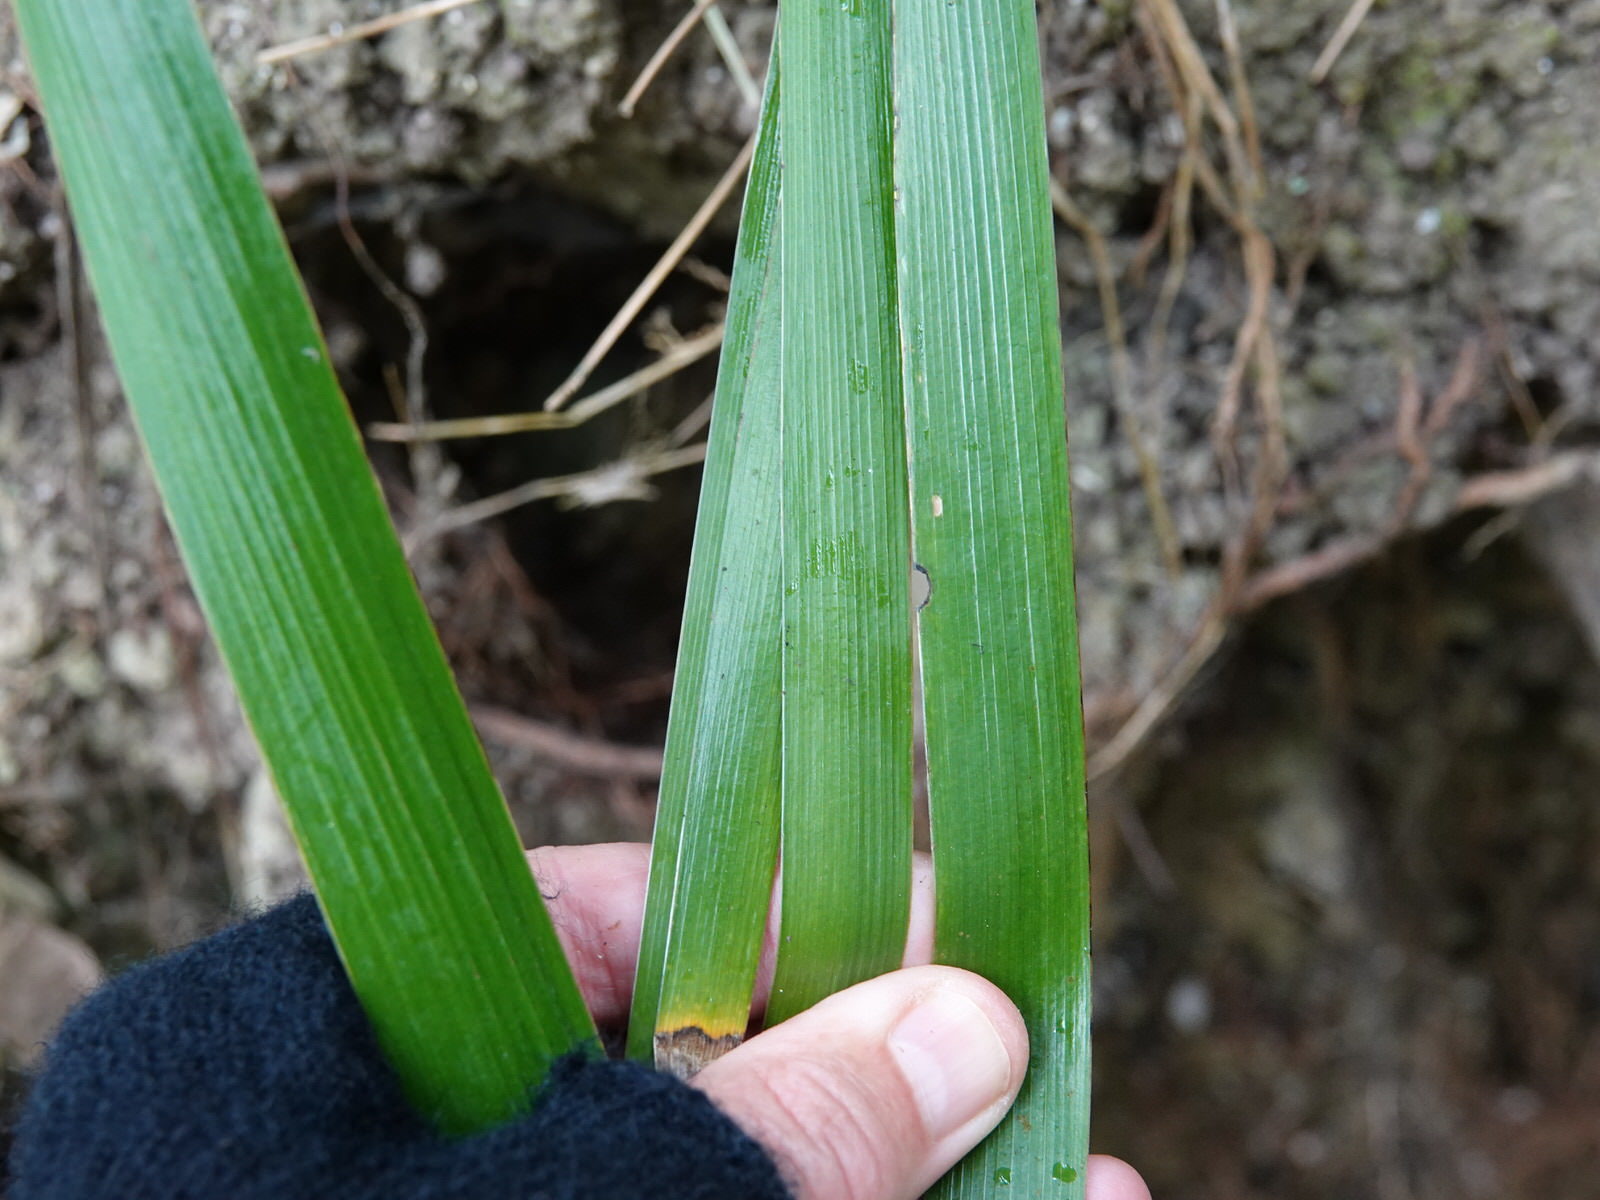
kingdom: Plantae
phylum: Tracheophyta
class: Liliopsida
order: Asparagales
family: Iridaceae
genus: Iris
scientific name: Iris foetidissima
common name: Stinking iris
